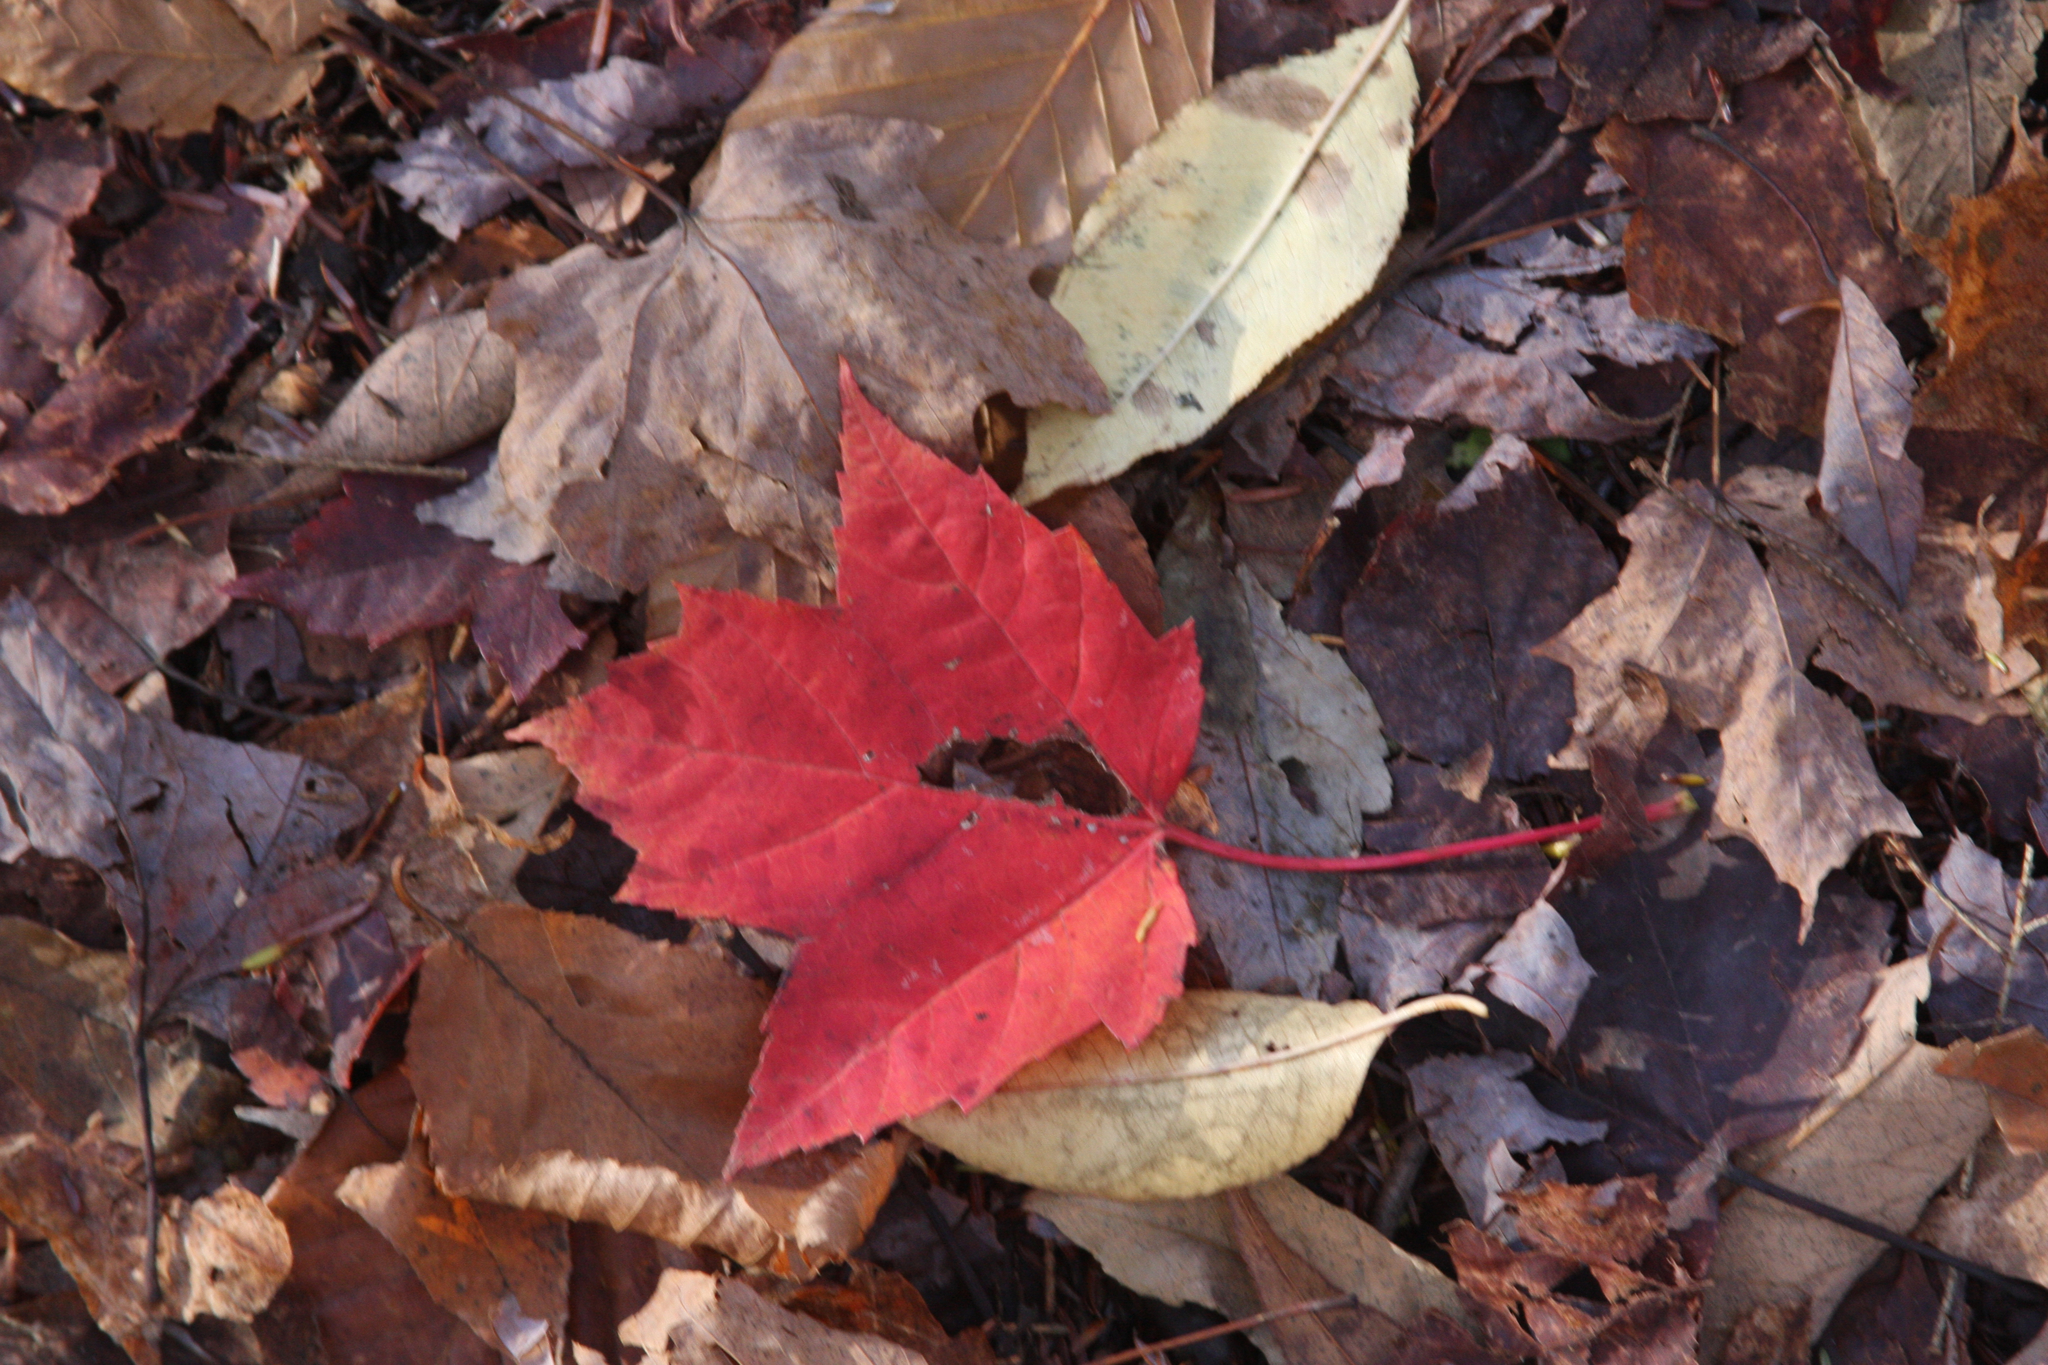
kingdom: Plantae
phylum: Tracheophyta
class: Magnoliopsida
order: Sapindales
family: Sapindaceae
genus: Acer
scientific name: Acer rubrum
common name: Red maple
